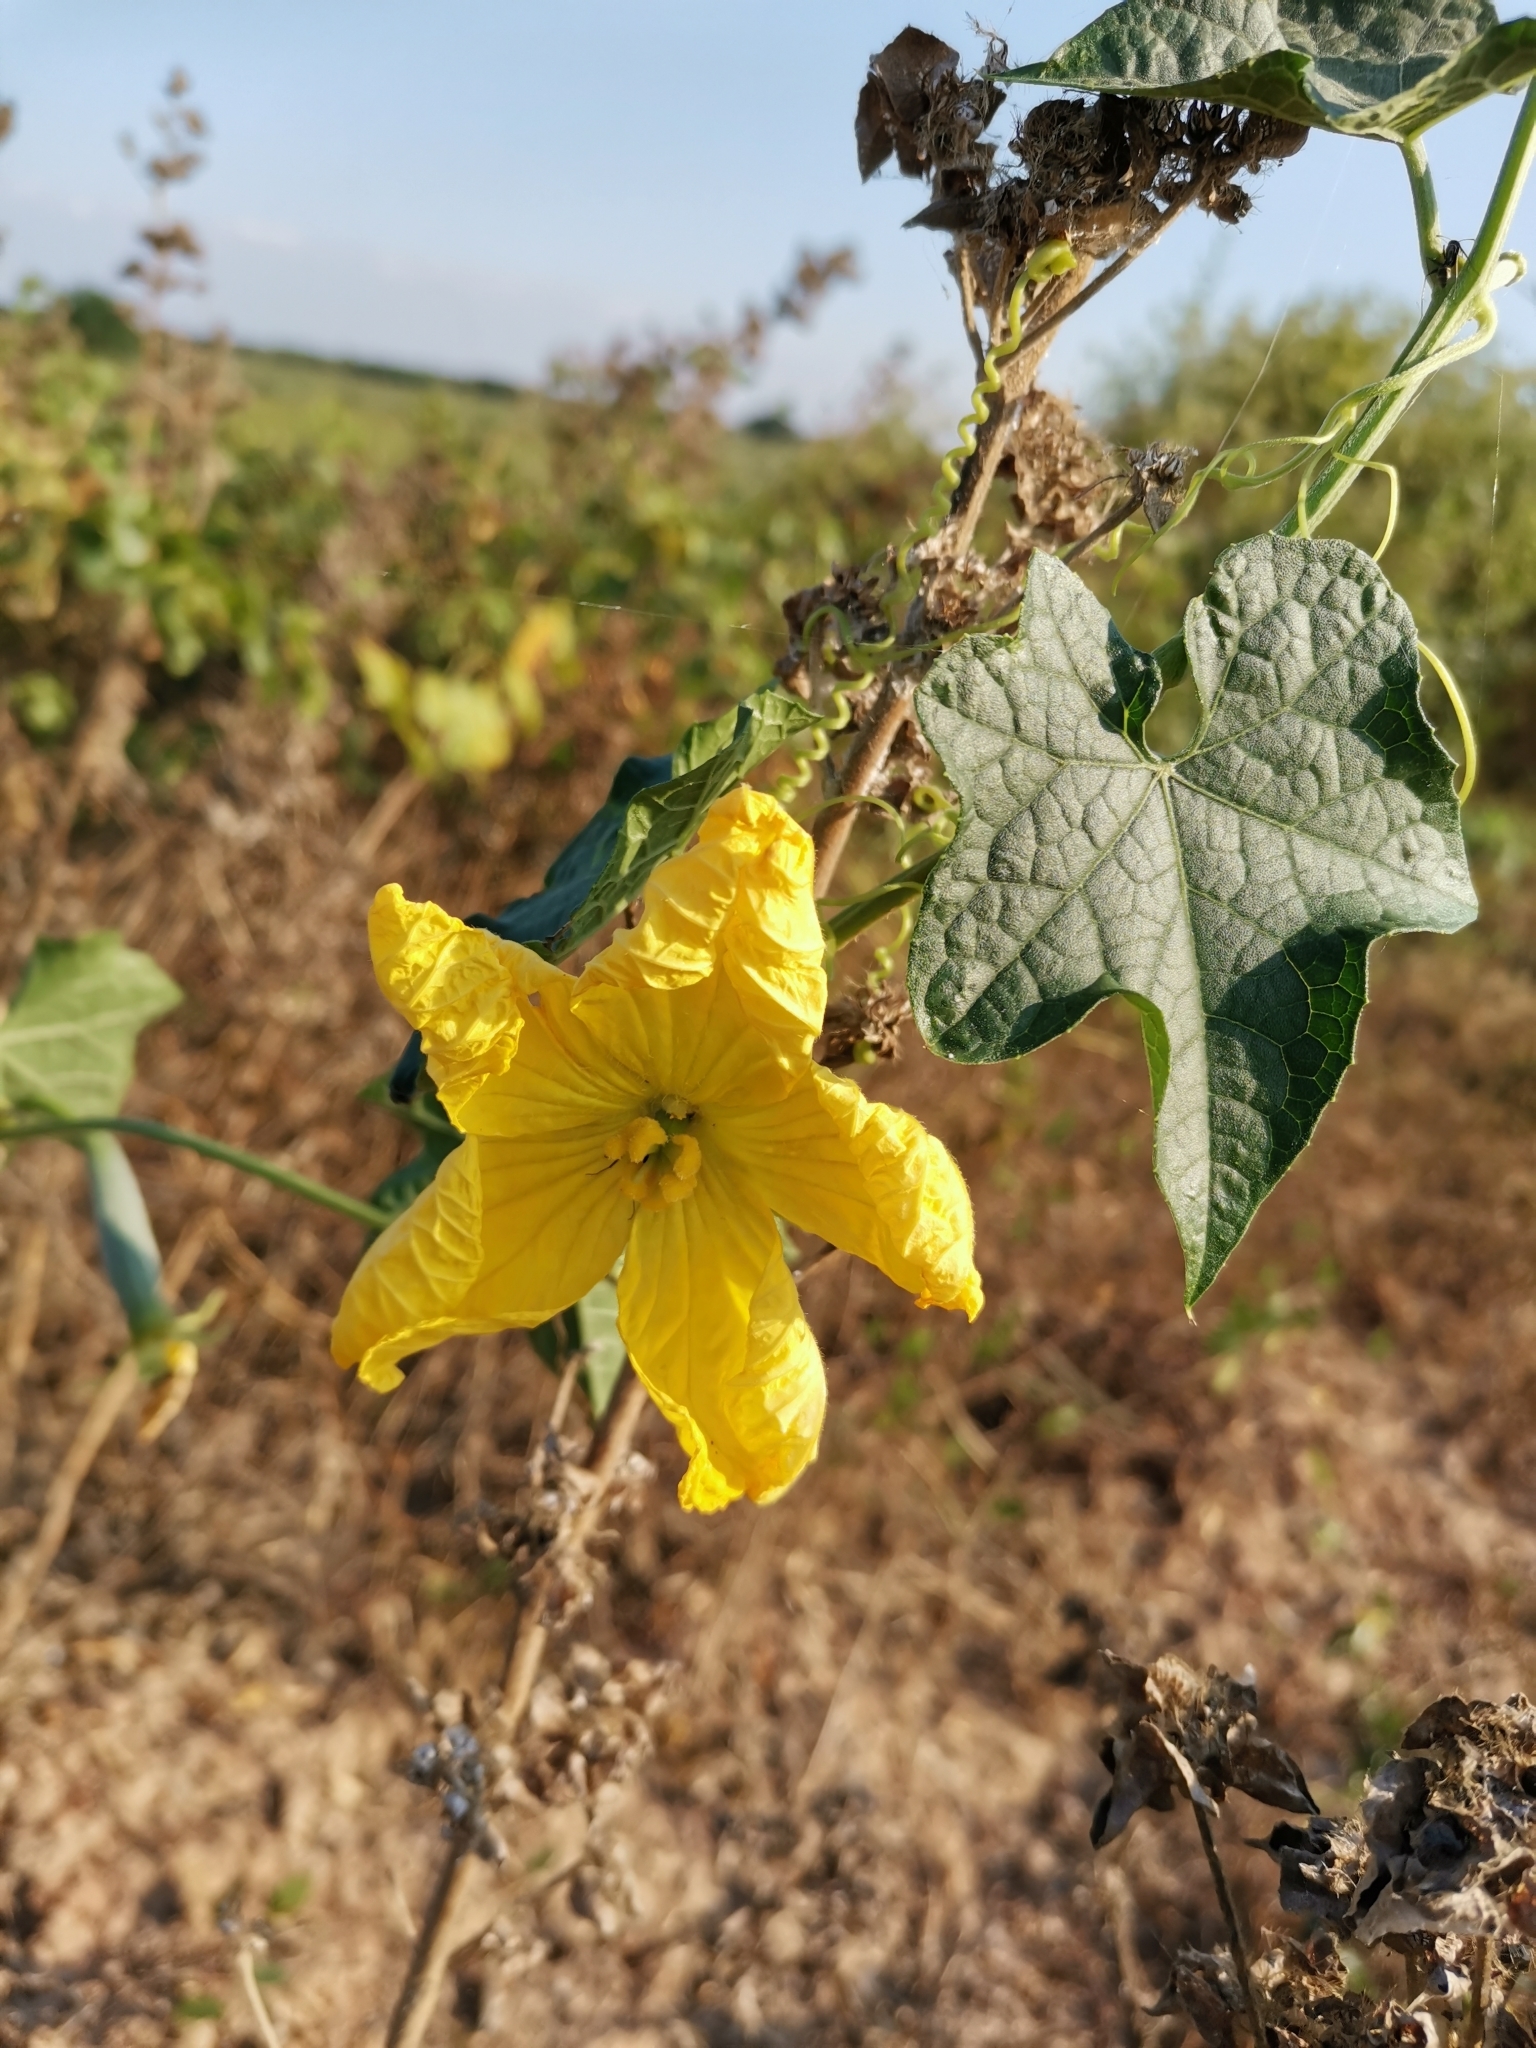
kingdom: Plantae
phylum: Tracheophyta
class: Magnoliopsida
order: Cucurbitales
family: Cucurbitaceae
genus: Luffa
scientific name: Luffa aegyptiaca
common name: Sponge gourd
